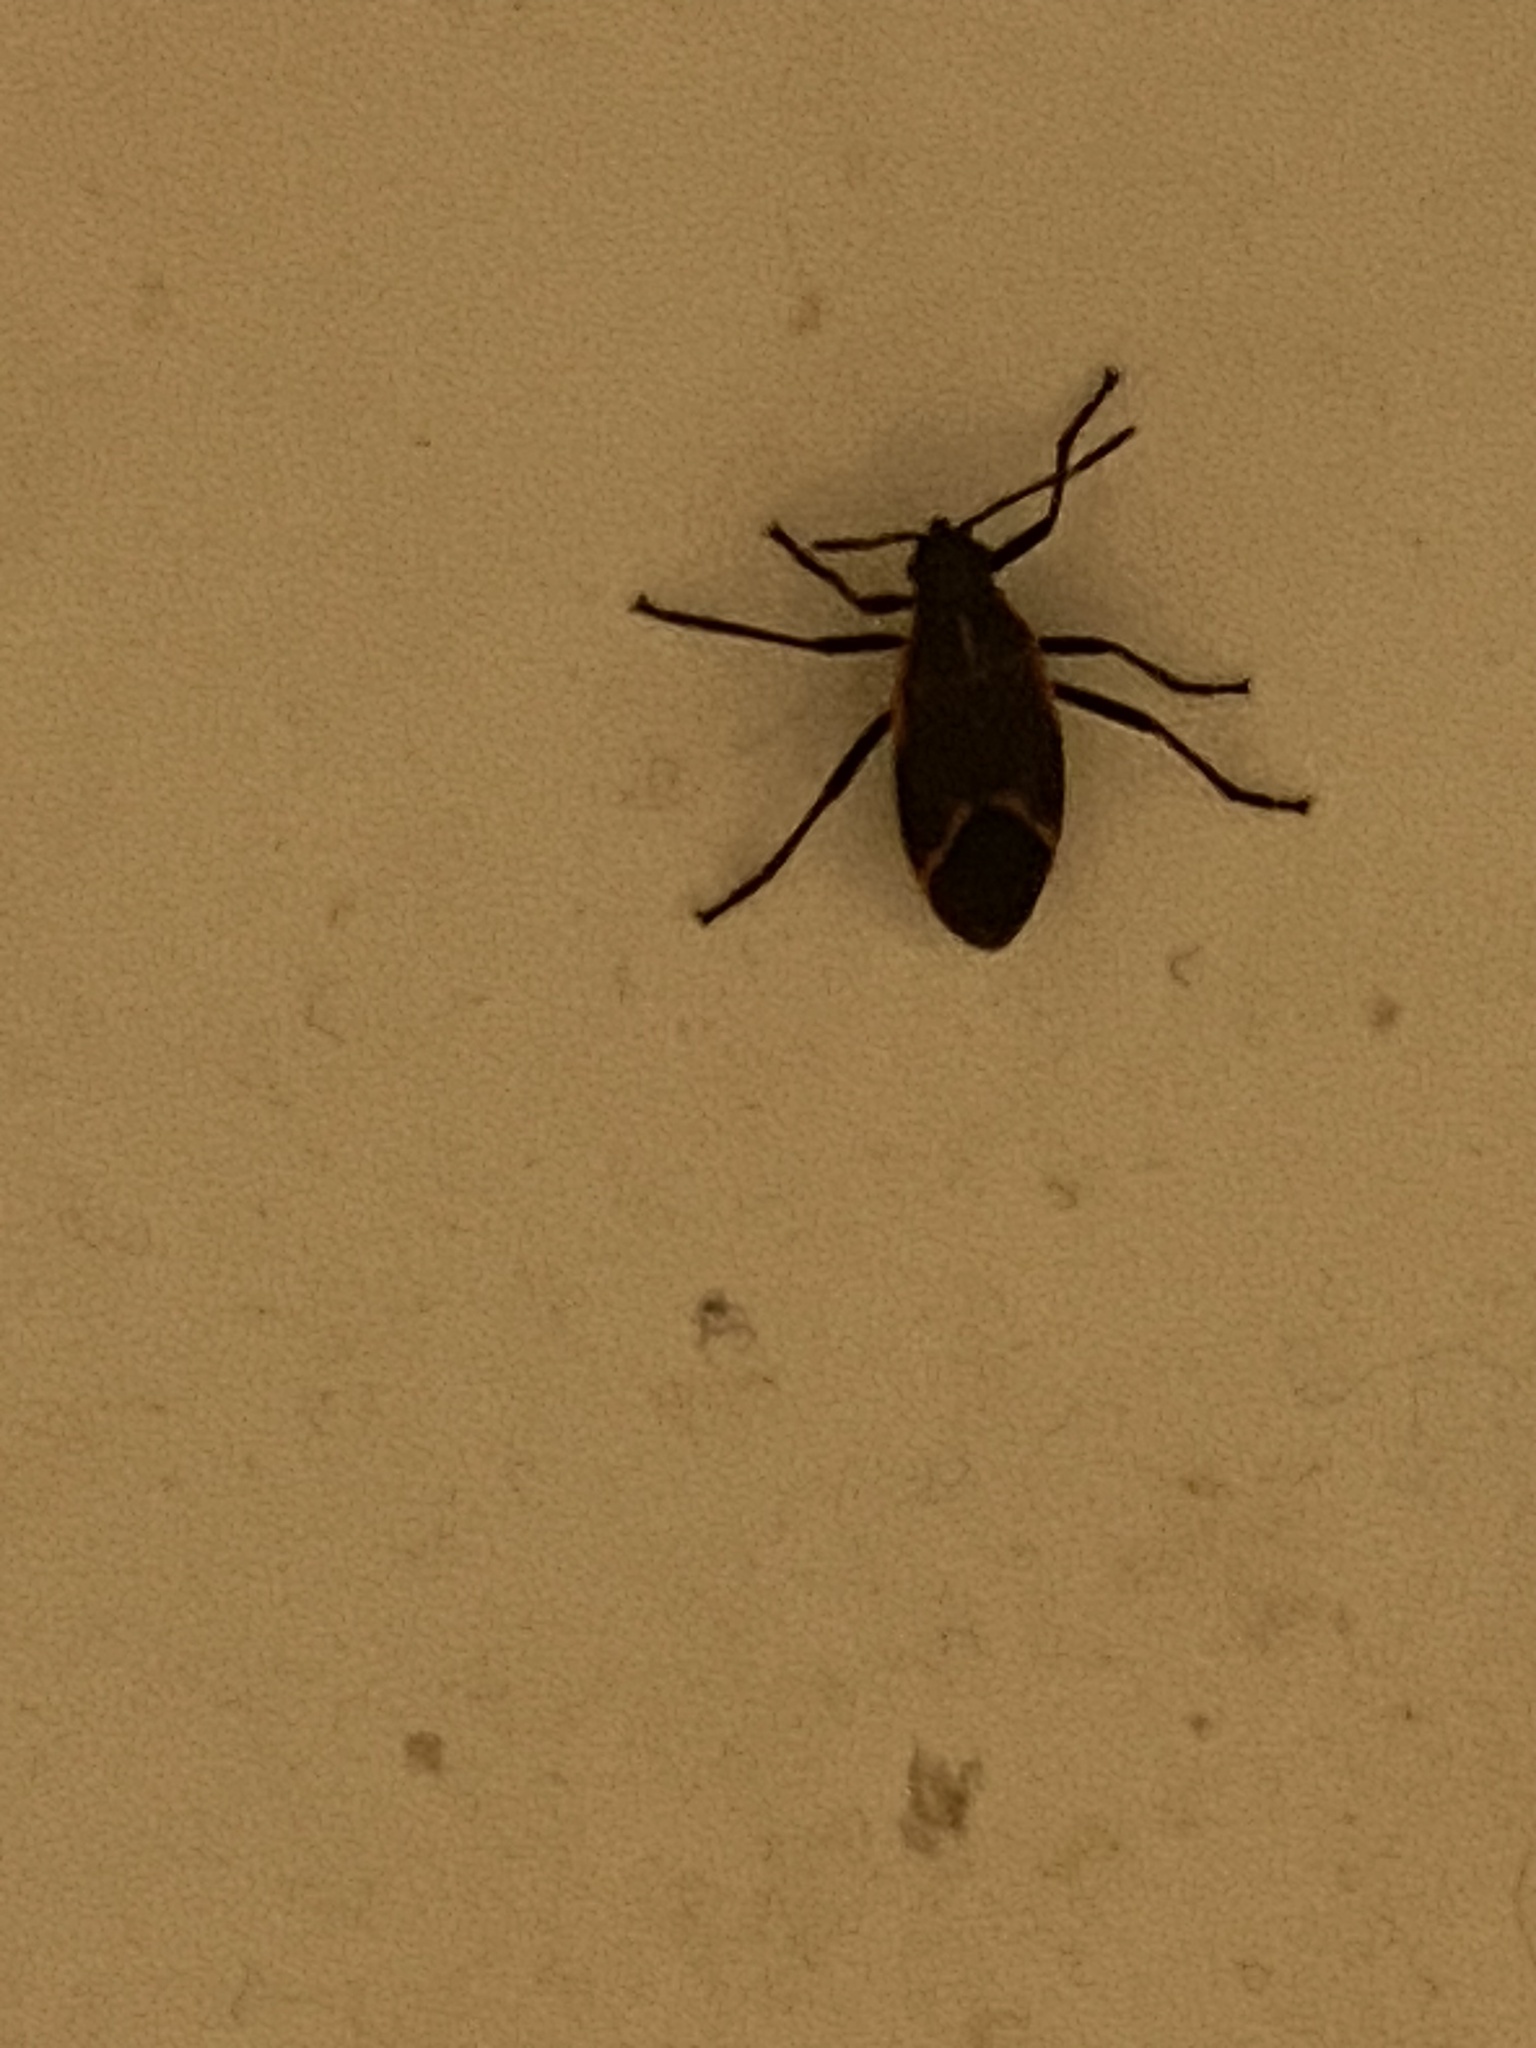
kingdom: Animalia
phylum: Arthropoda
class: Insecta
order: Hemiptera
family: Rhopalidae
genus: Boisea
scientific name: Boisea trivittata
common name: Boxelder bug
